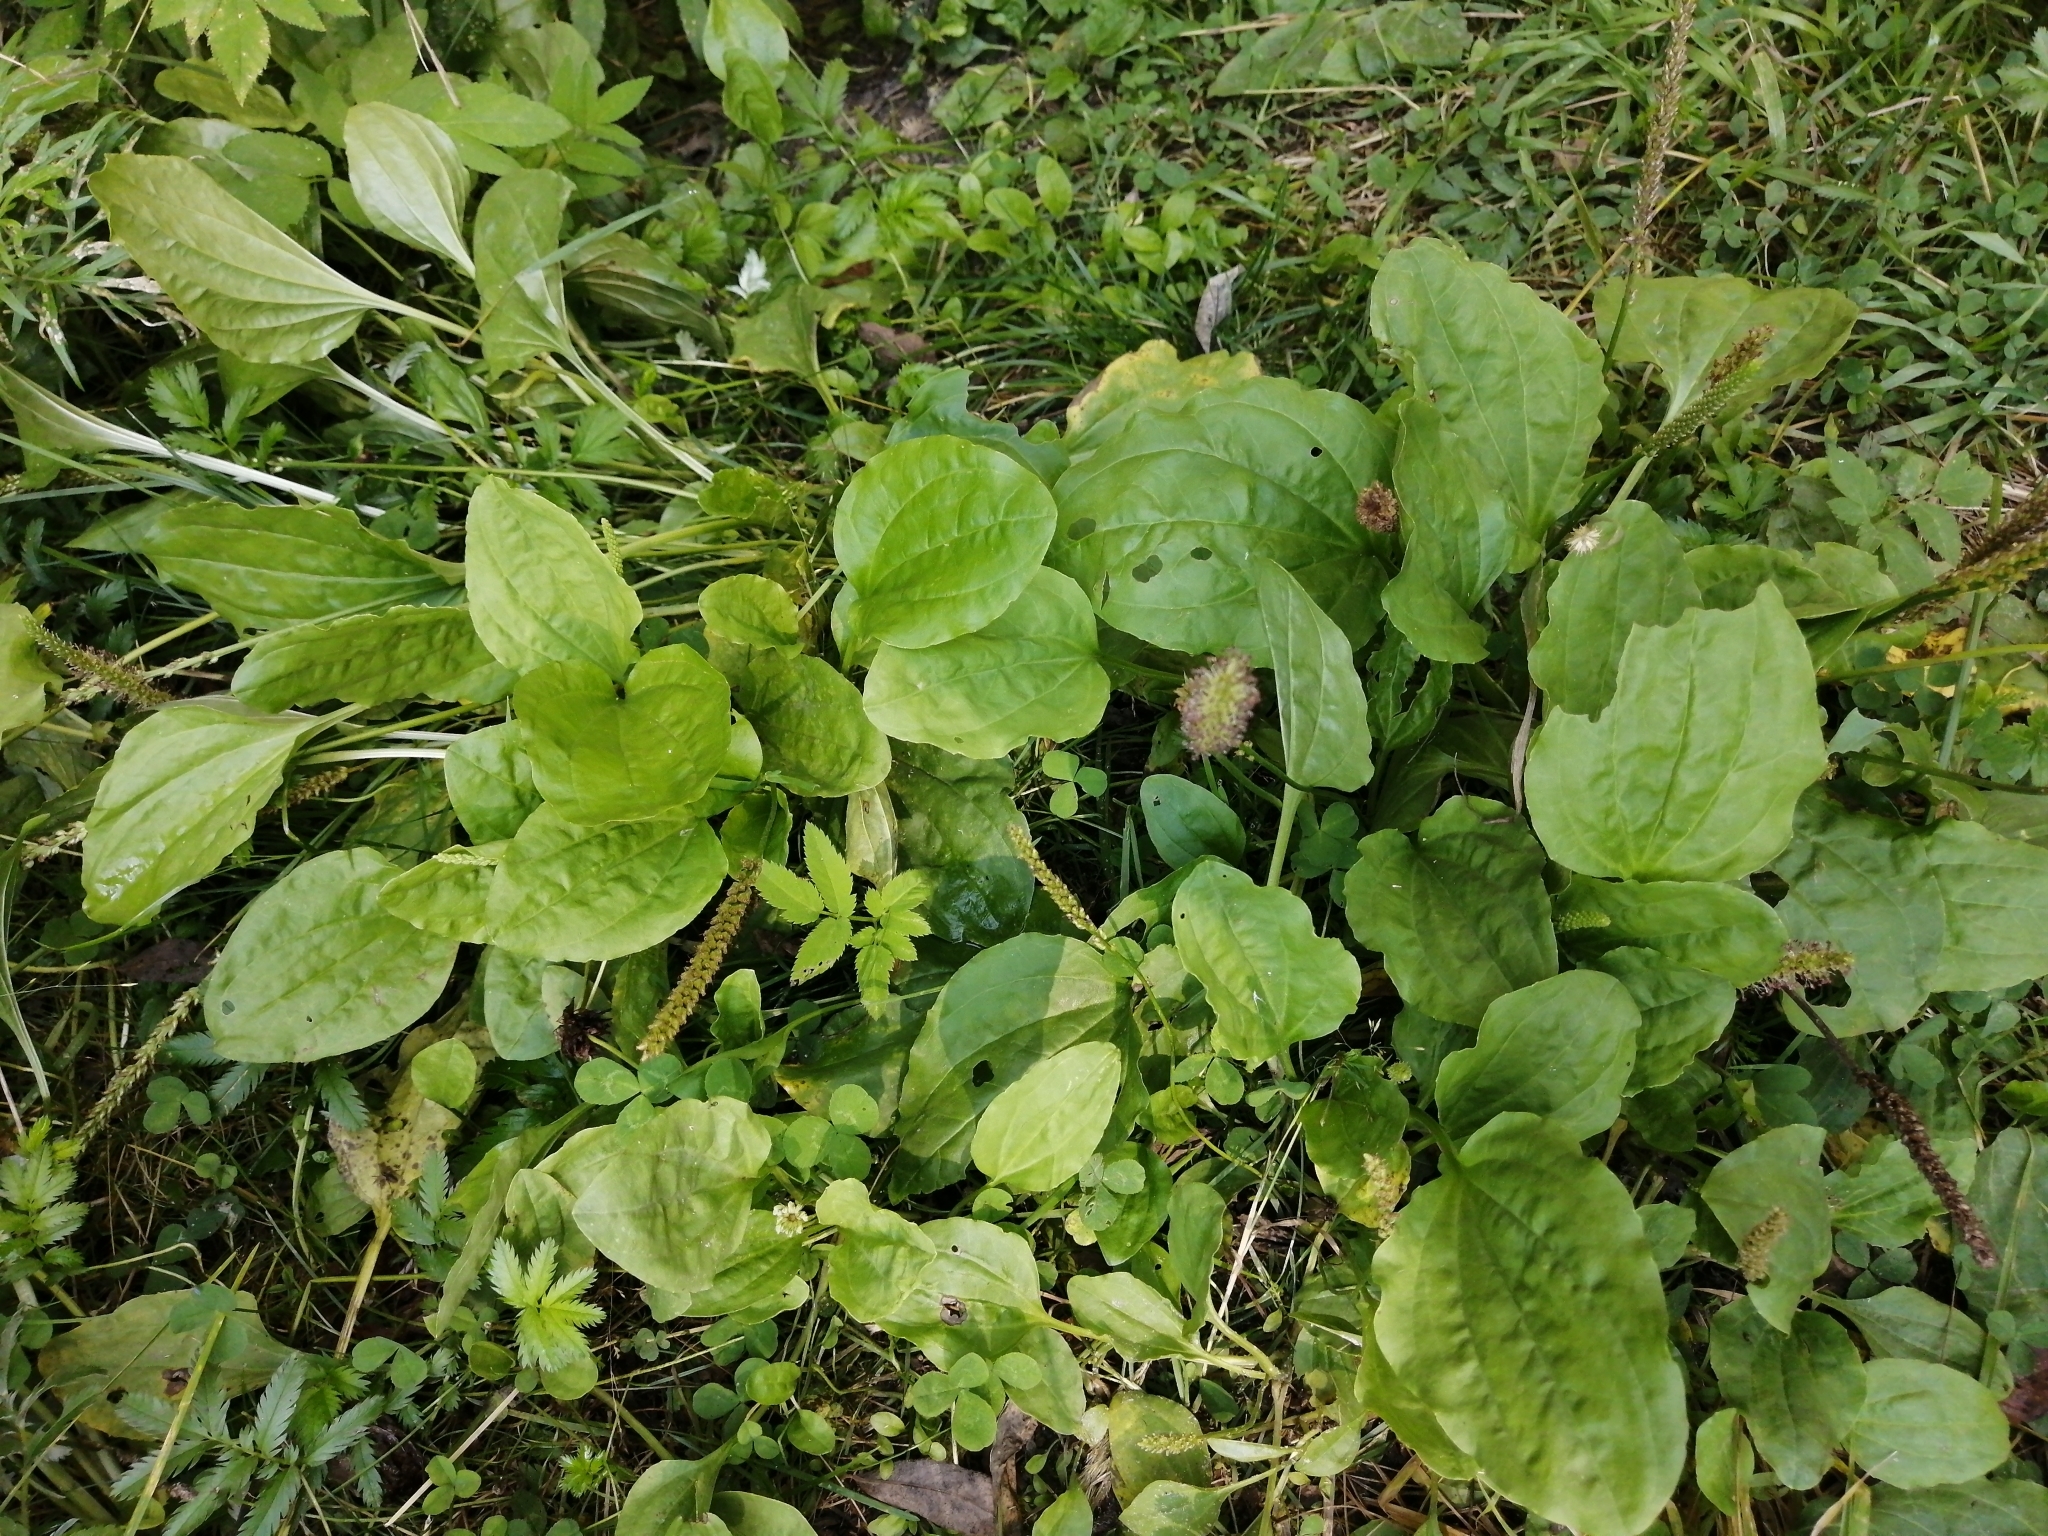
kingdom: Plantae
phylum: Tracheophyta
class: Magnoliopsida
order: Lamiales
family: Plantaginaceae
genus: Plantago
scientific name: Plantago major
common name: Common plantain
